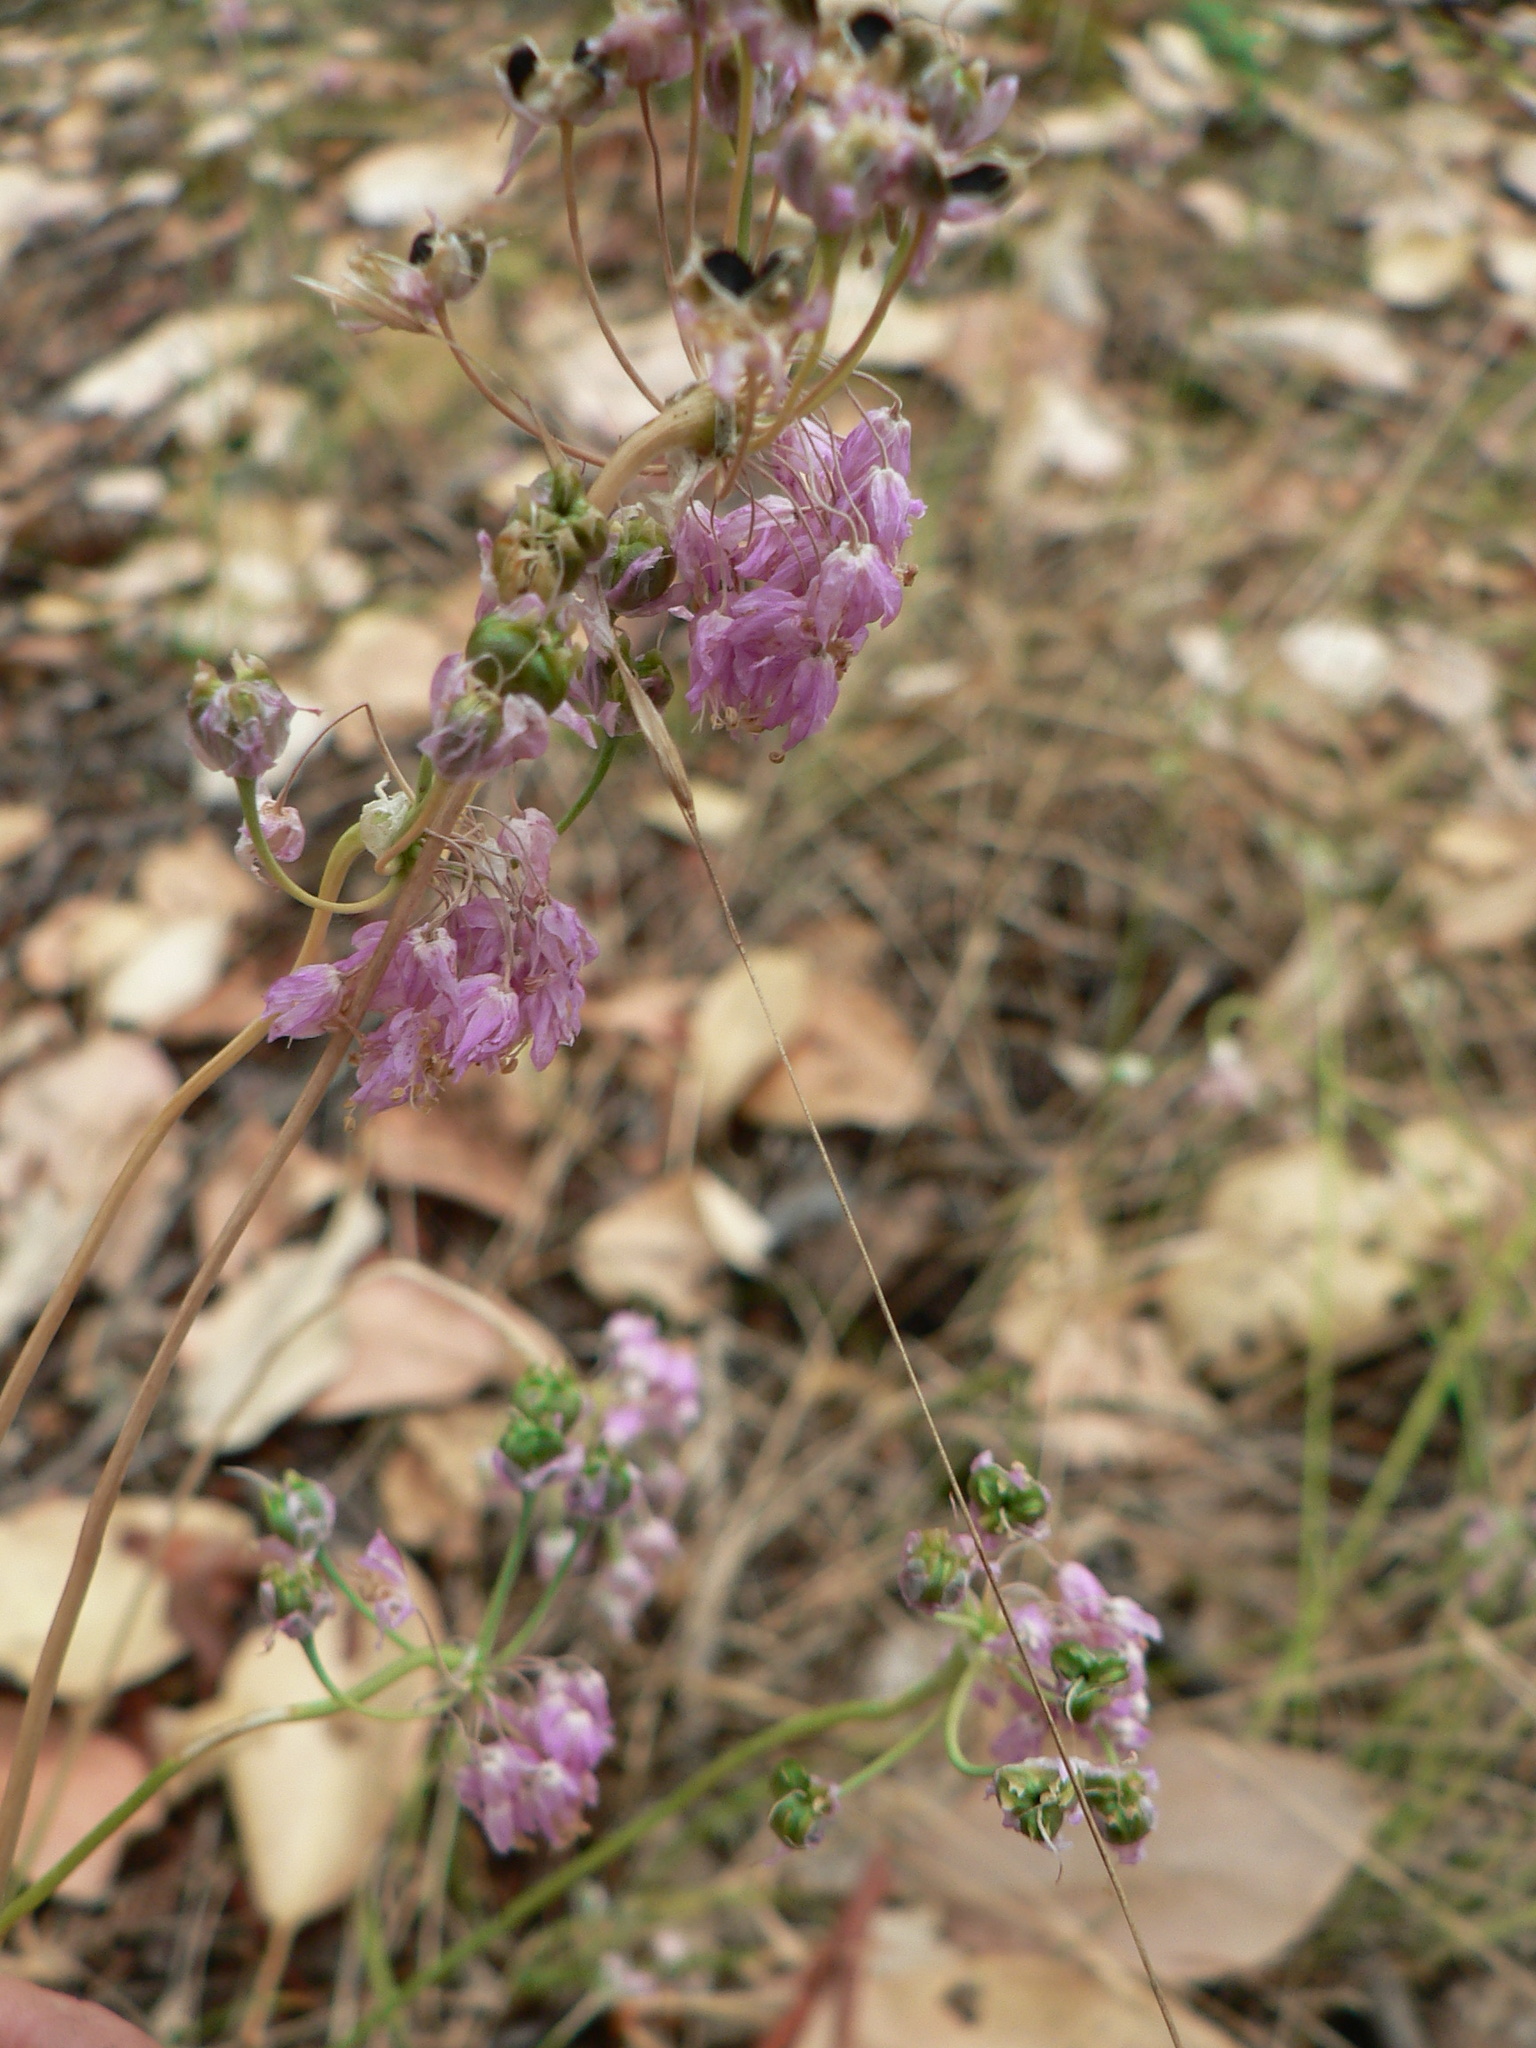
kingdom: Plantae
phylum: Tracheophyta
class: Liliopsida
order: Asparagales
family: Amaryllidaceae
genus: Allium
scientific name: Allium cernuum
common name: Nodding onion
